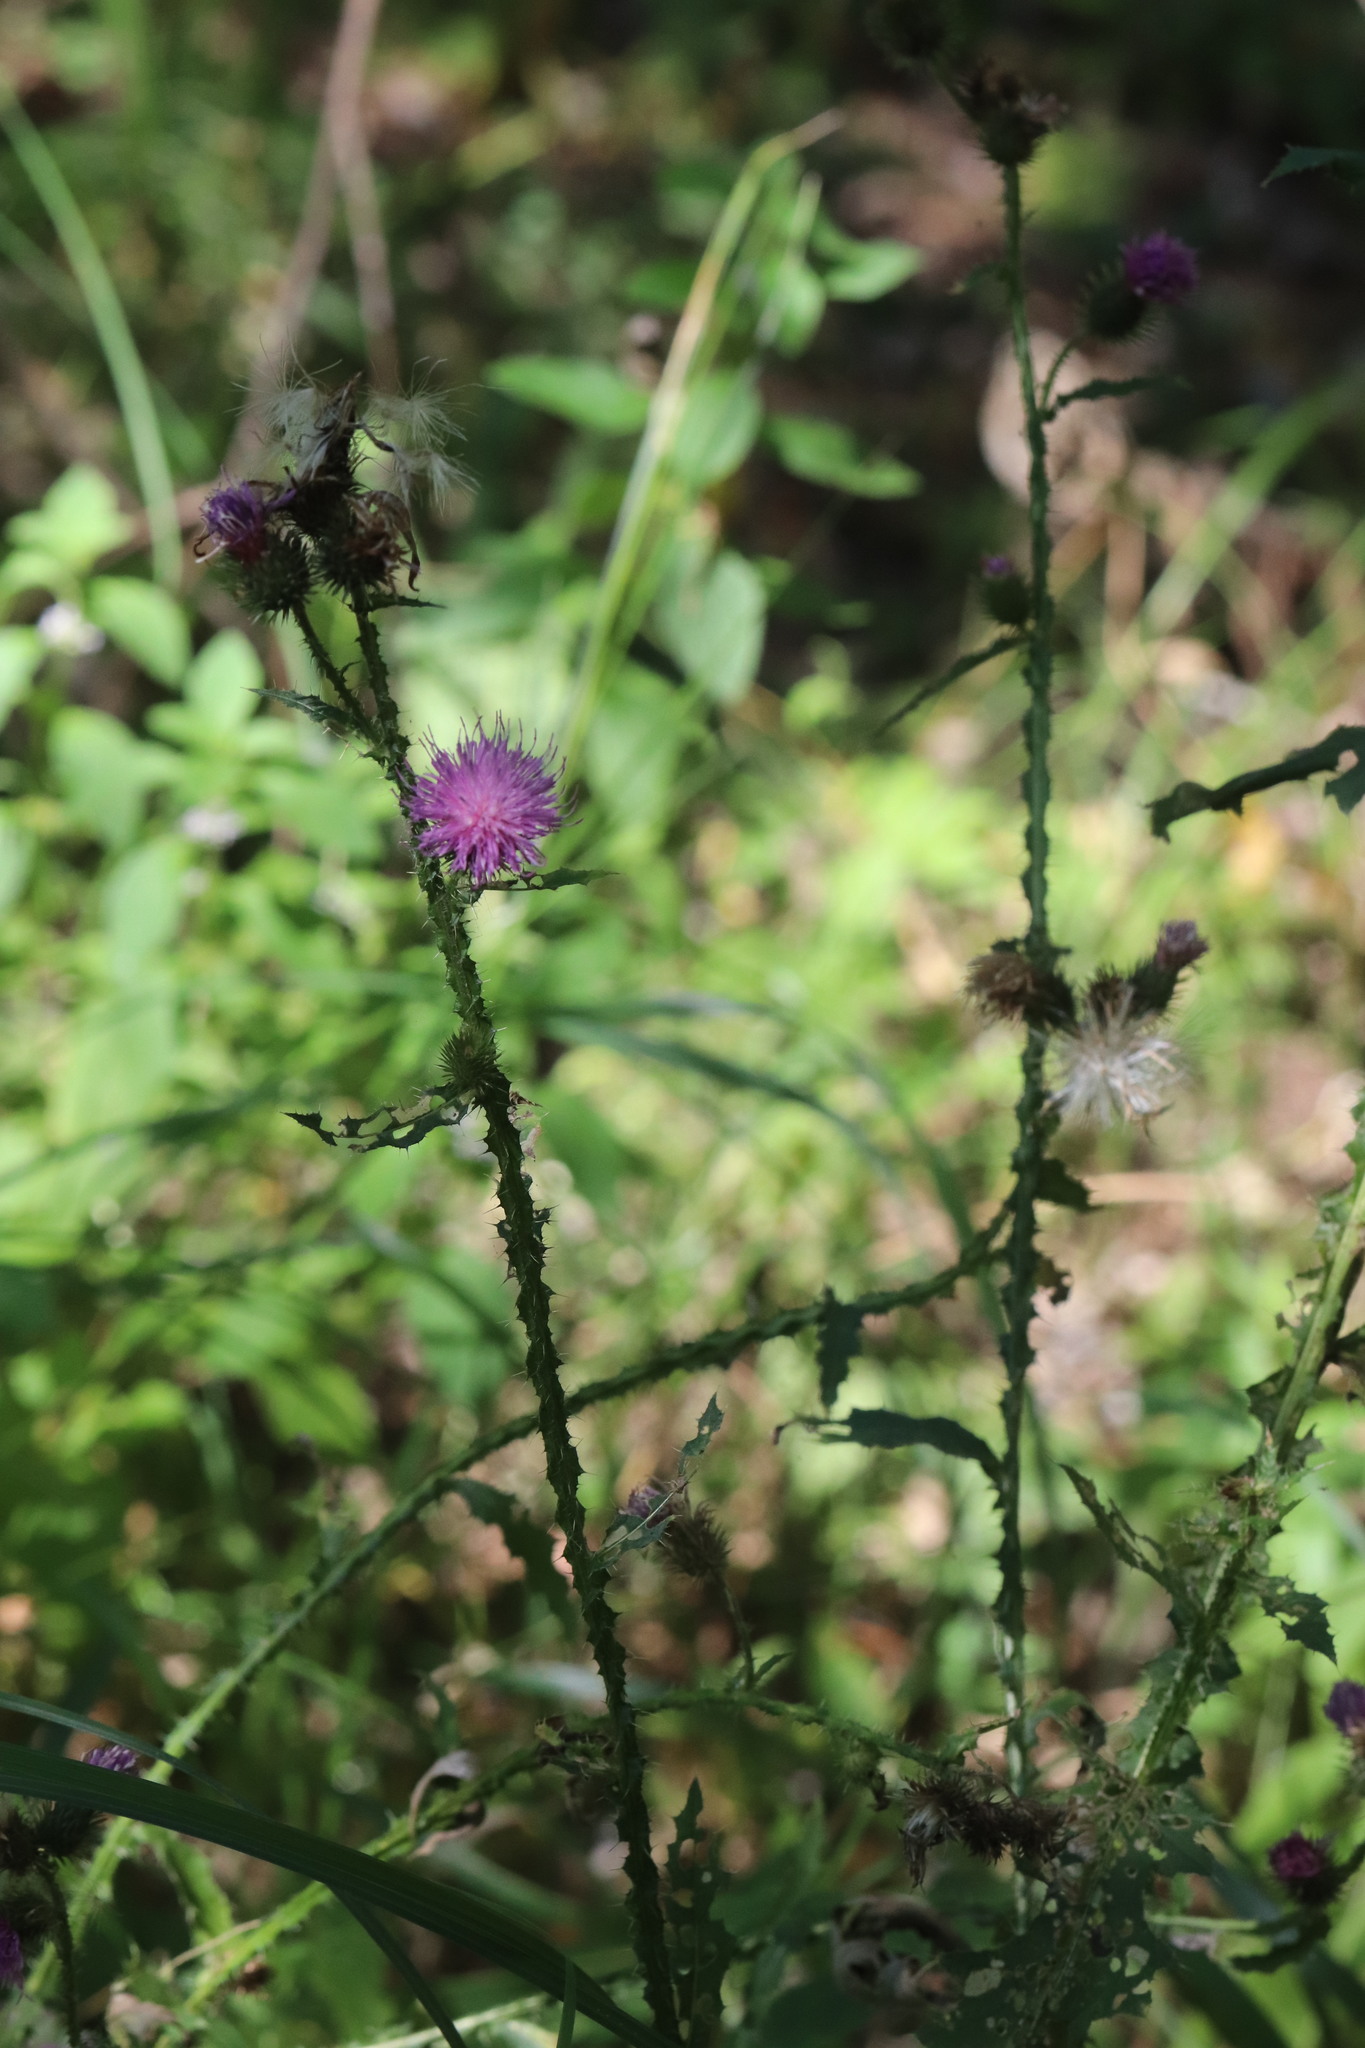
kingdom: Plantae
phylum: Tracheophyta
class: Magnoliopsida
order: Asterales
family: Asteraceae
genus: Carduus
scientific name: Carduus crispus
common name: Welted thistle
